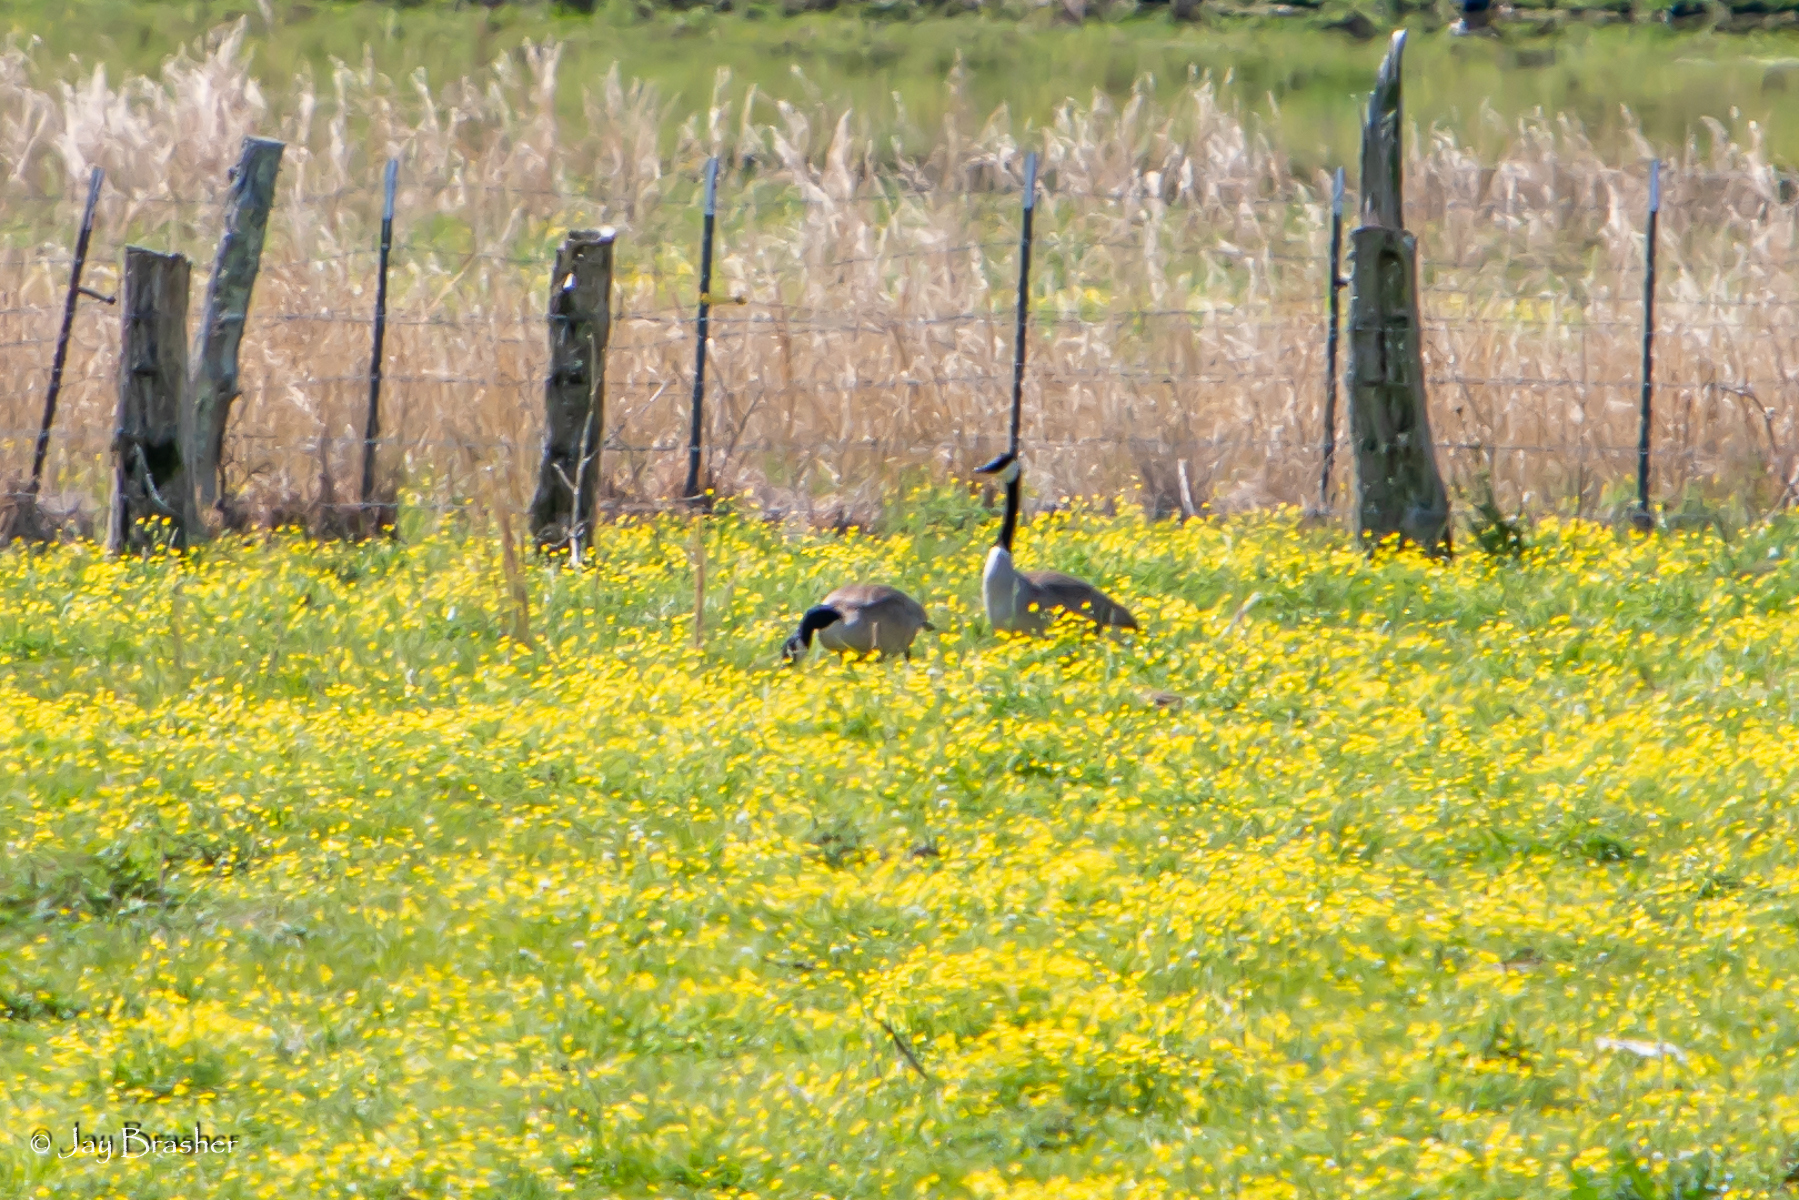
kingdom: Animalia
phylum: Chordata
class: Aves
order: Anseriformes
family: Anatidae
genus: Branta
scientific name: Branta canadensis
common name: Canada goose
